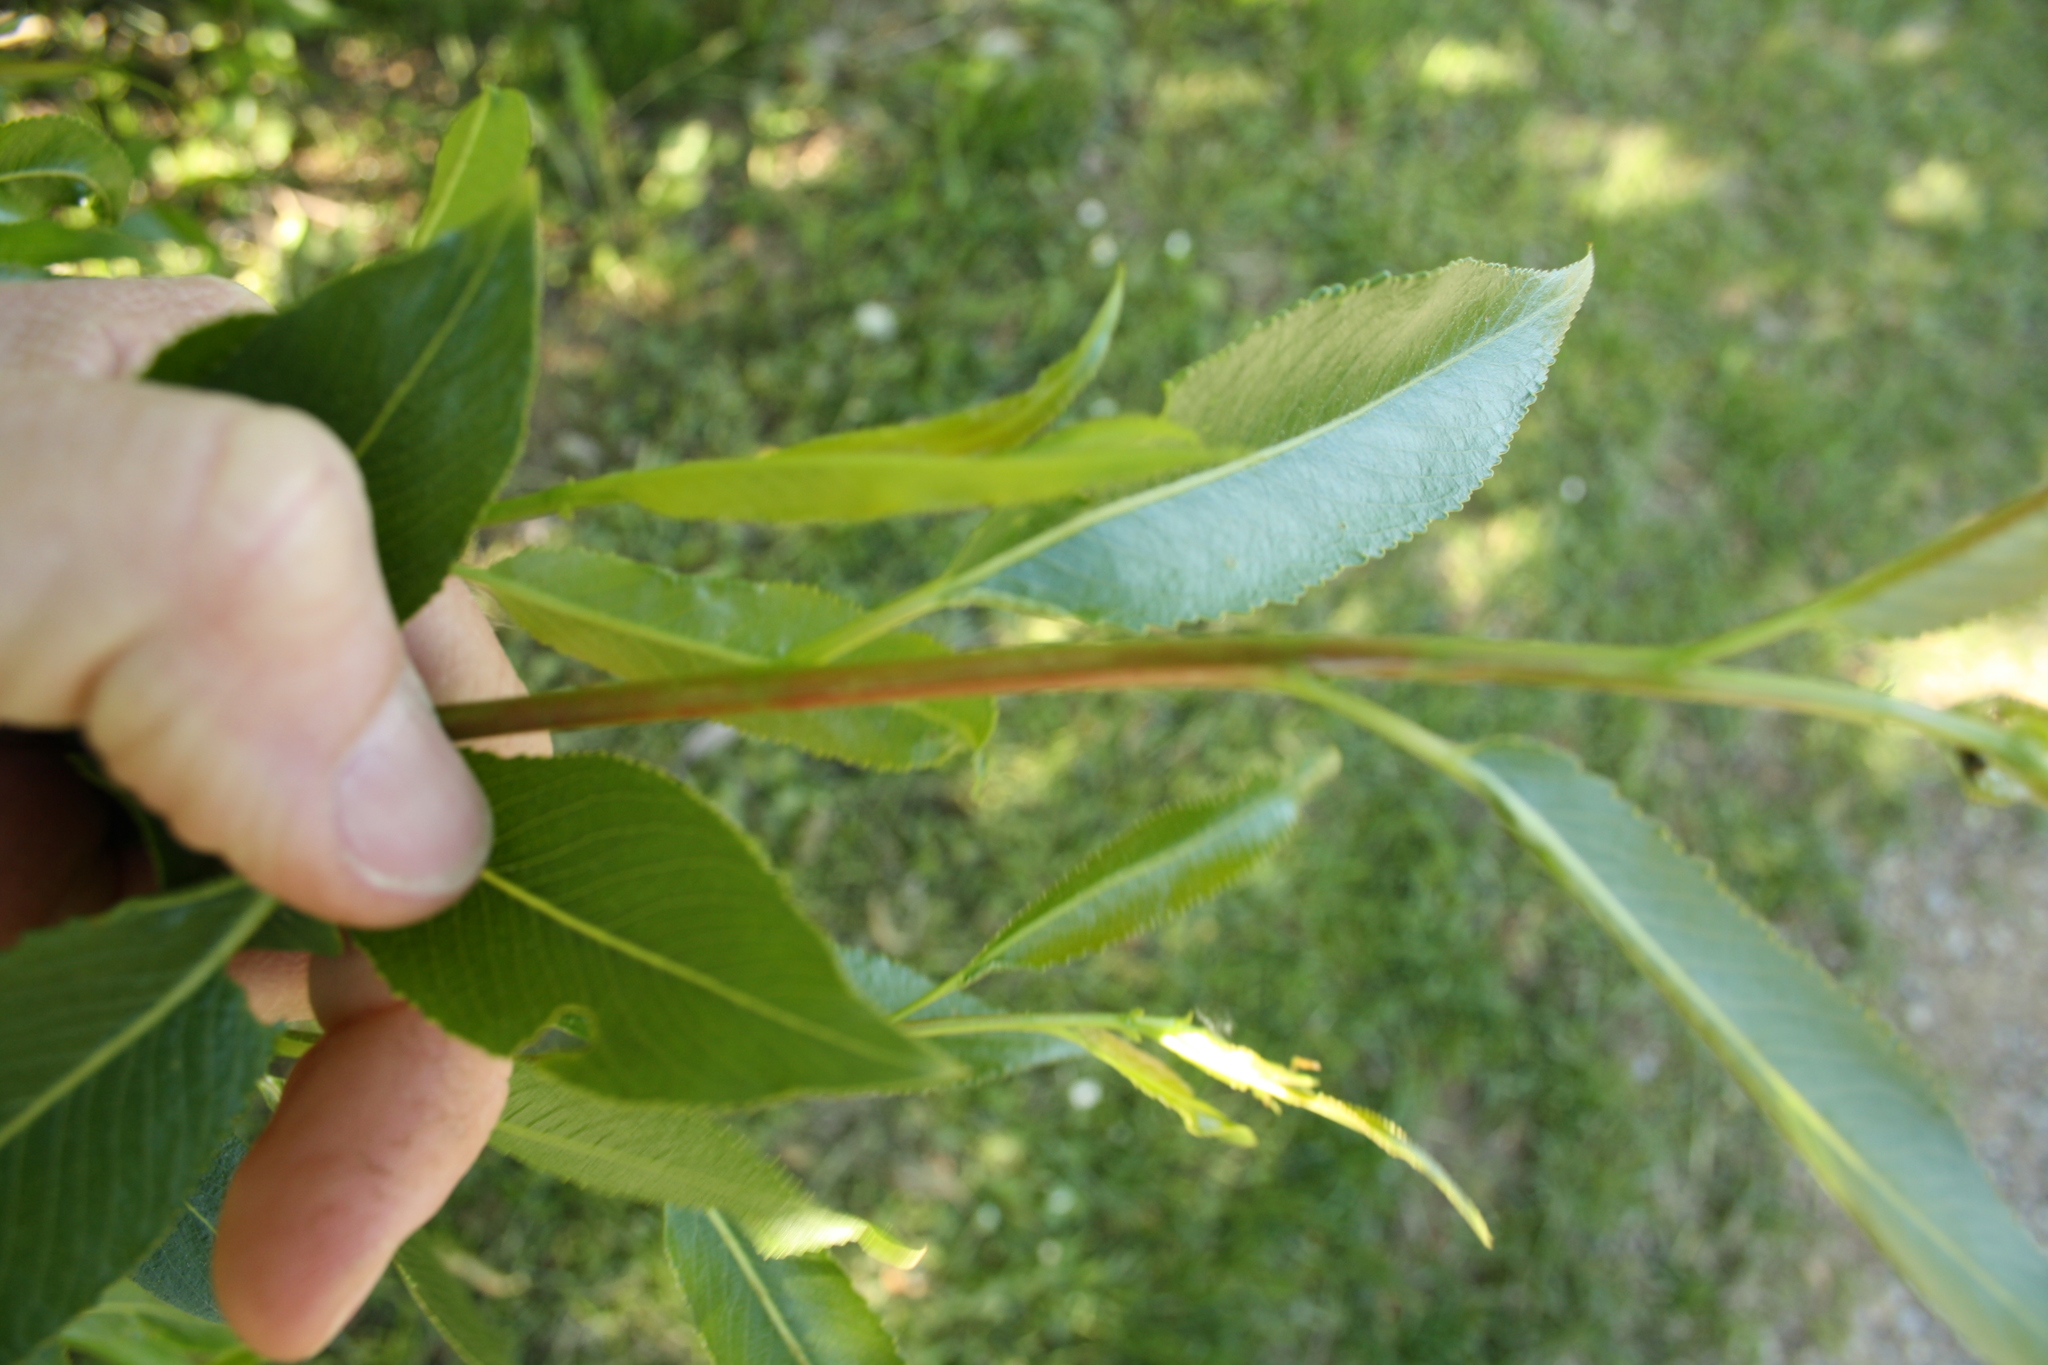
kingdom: Plantae
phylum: Tracheophyta
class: Magnoliopsida
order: Malpighiales
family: Salicaceae
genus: Salix
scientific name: Salix purpurea
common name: Purple willow
